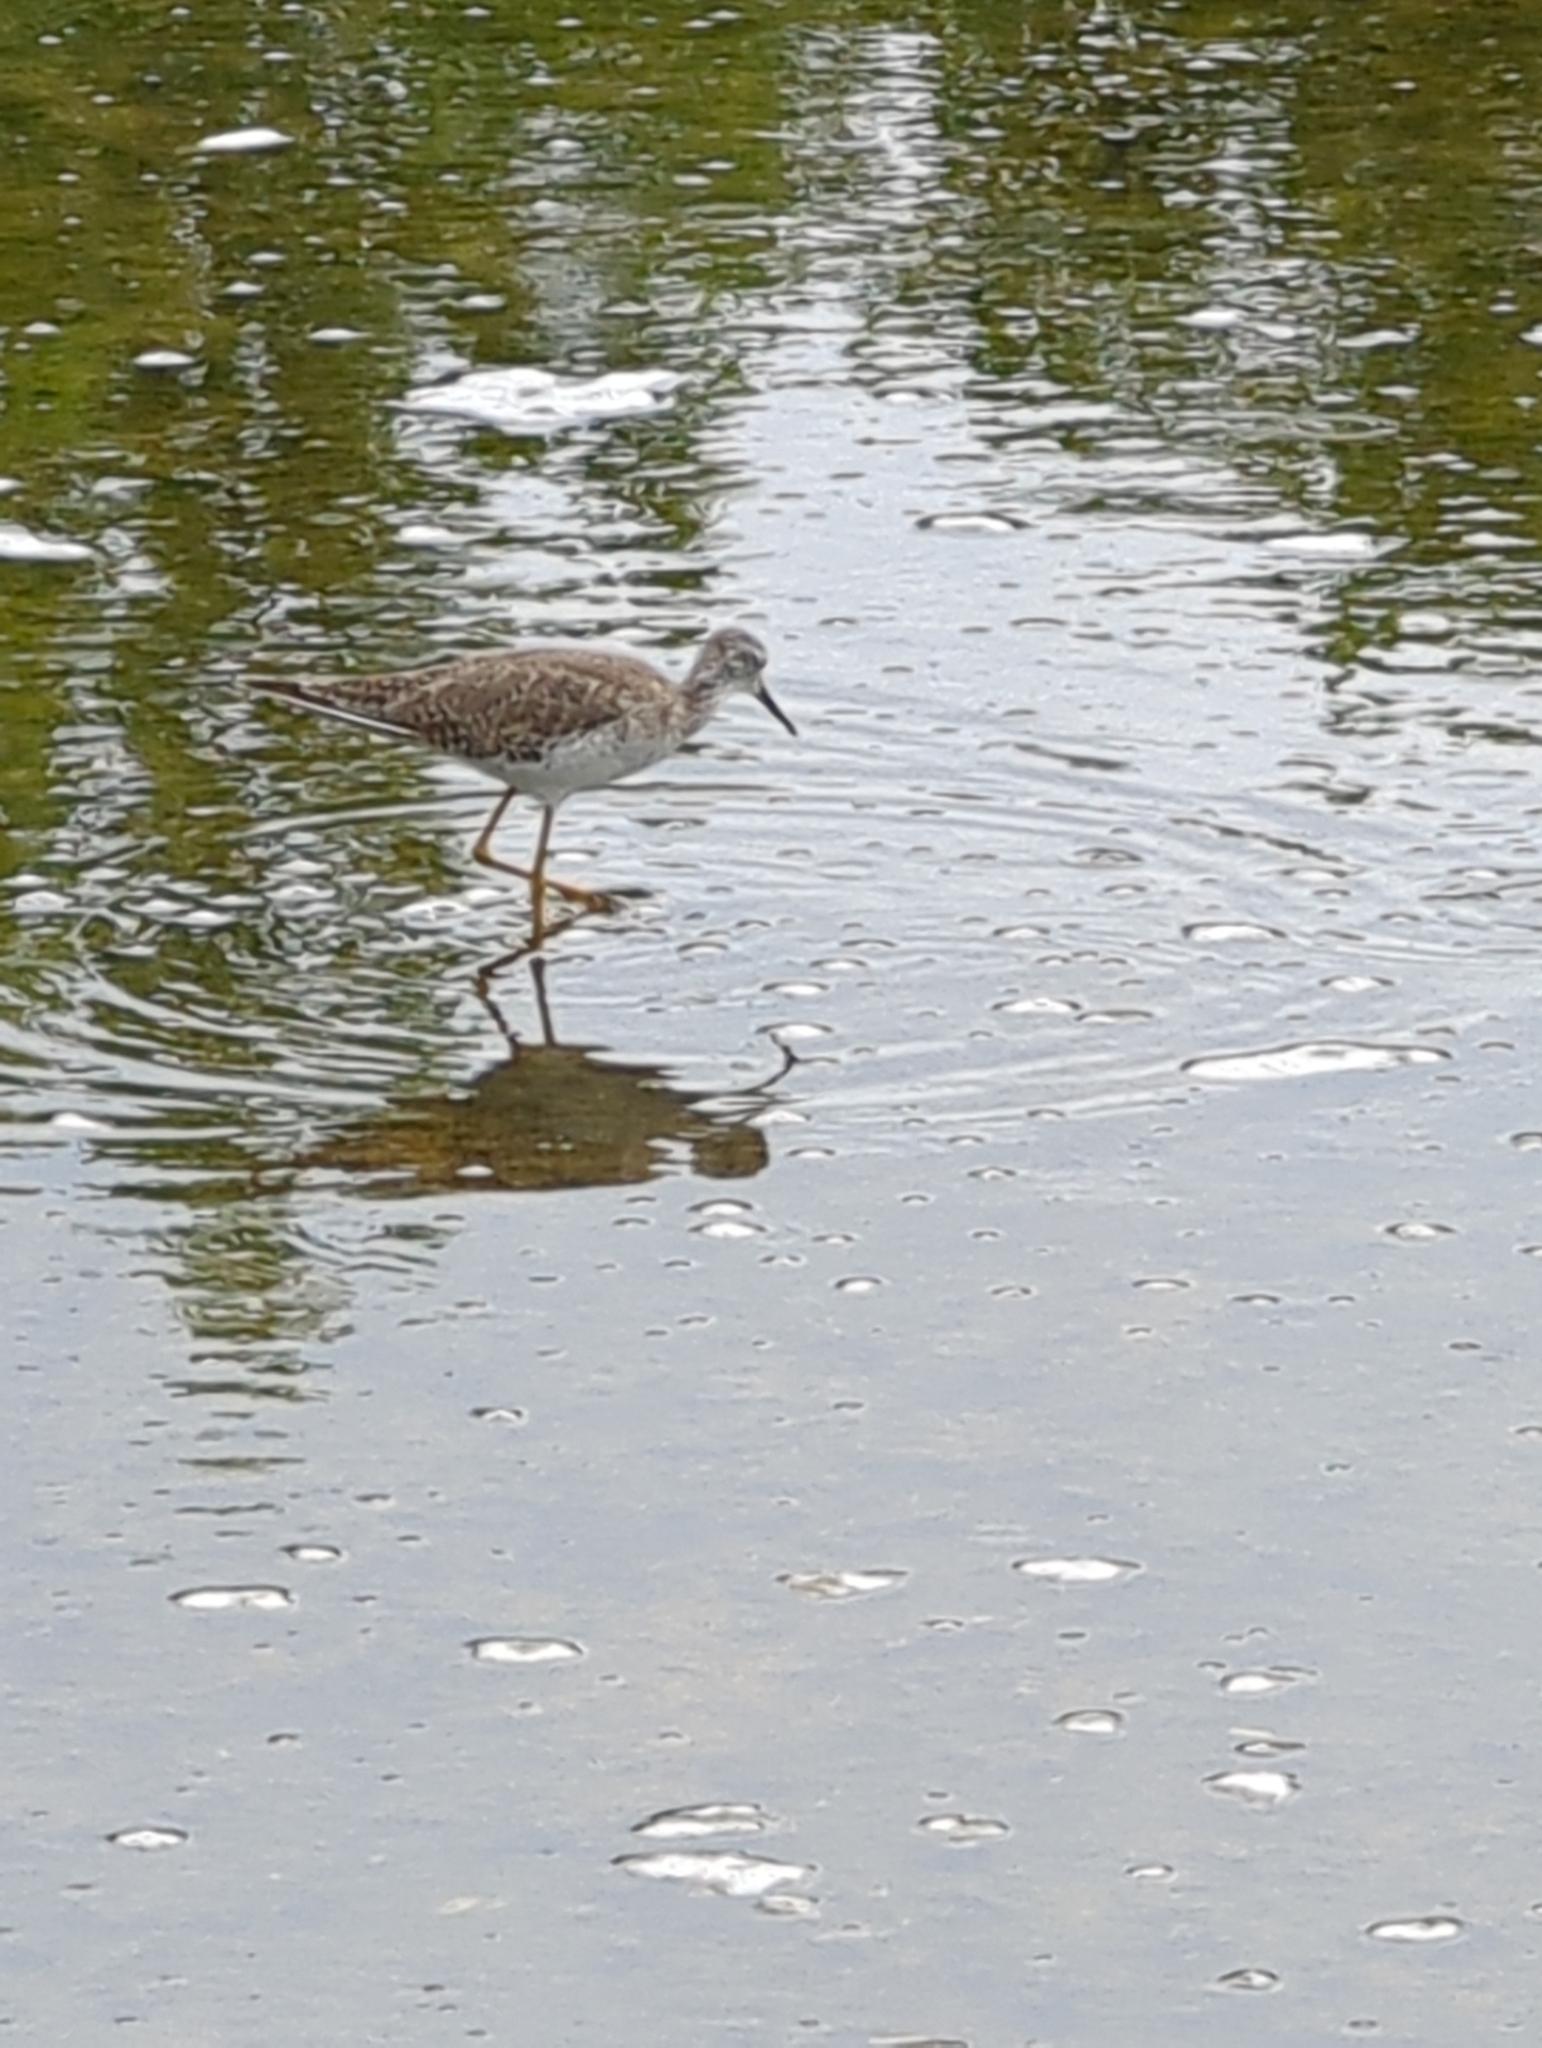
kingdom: Animalia
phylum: Chordata
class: Aves
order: Charadriiformes
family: Scolopacidae
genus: Tringa
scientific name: Tringa flavipes
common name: Lesser yellowlegs
